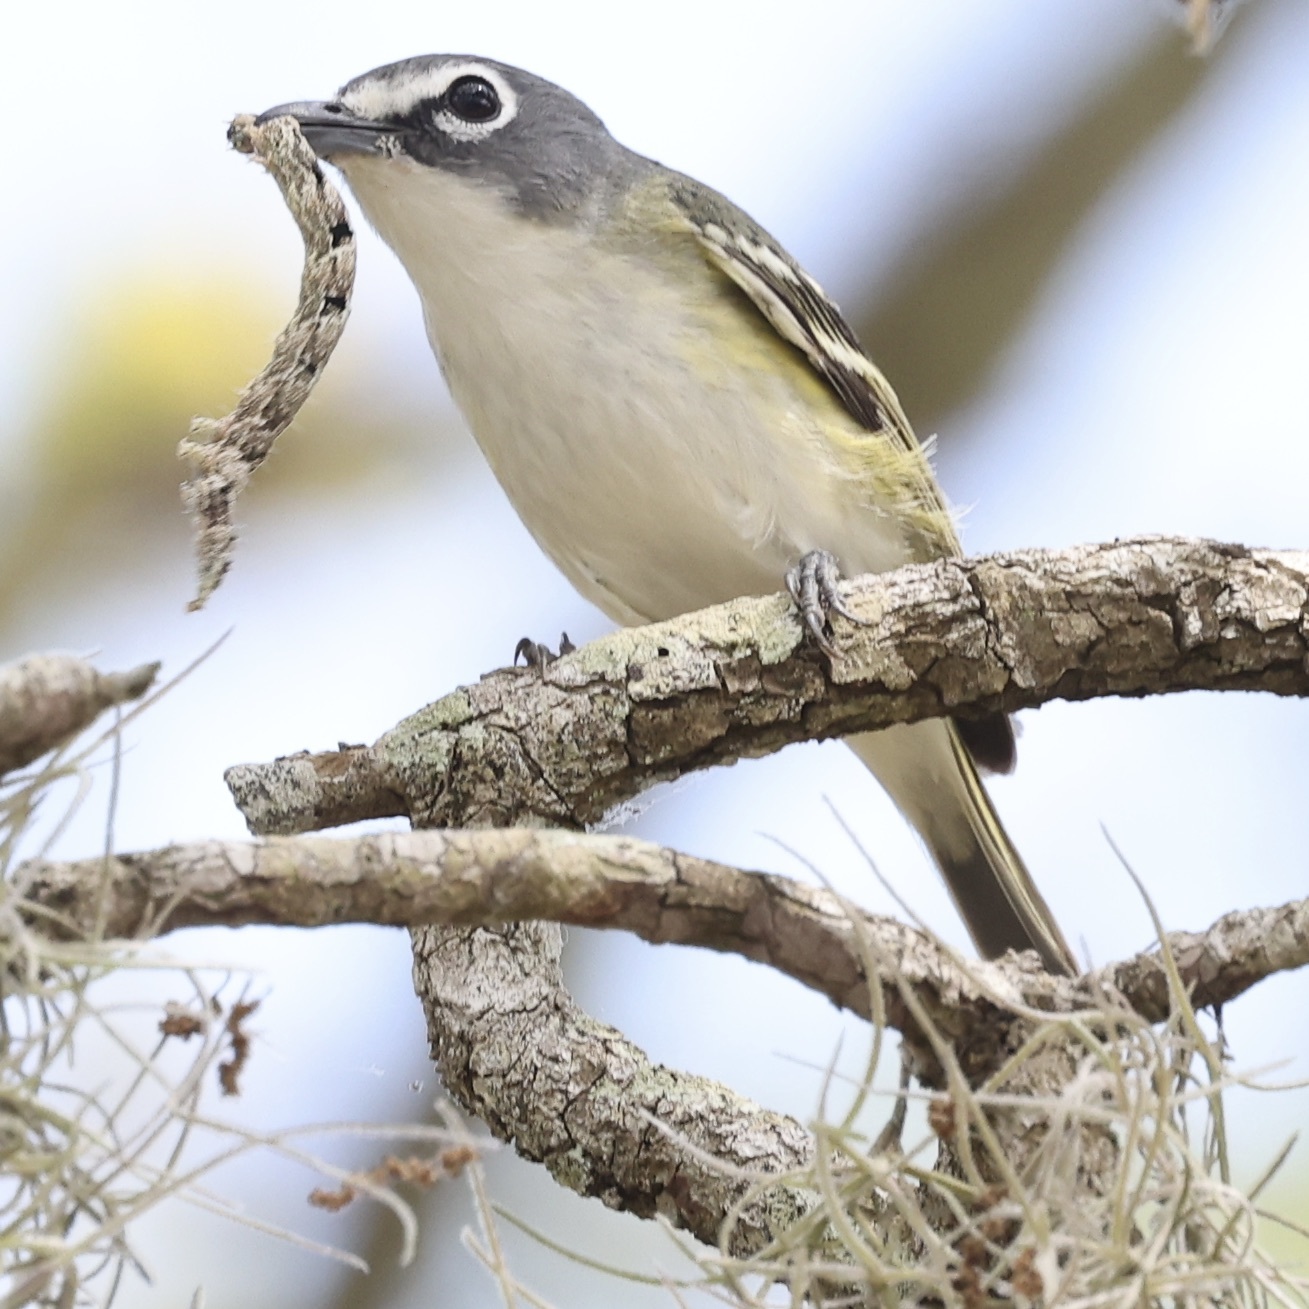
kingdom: Animalia
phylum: Chordata
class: Aves
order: Passeriformes
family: Vireonidae
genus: Vireo
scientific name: Vireo solitarius
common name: Blue-headed vireo
